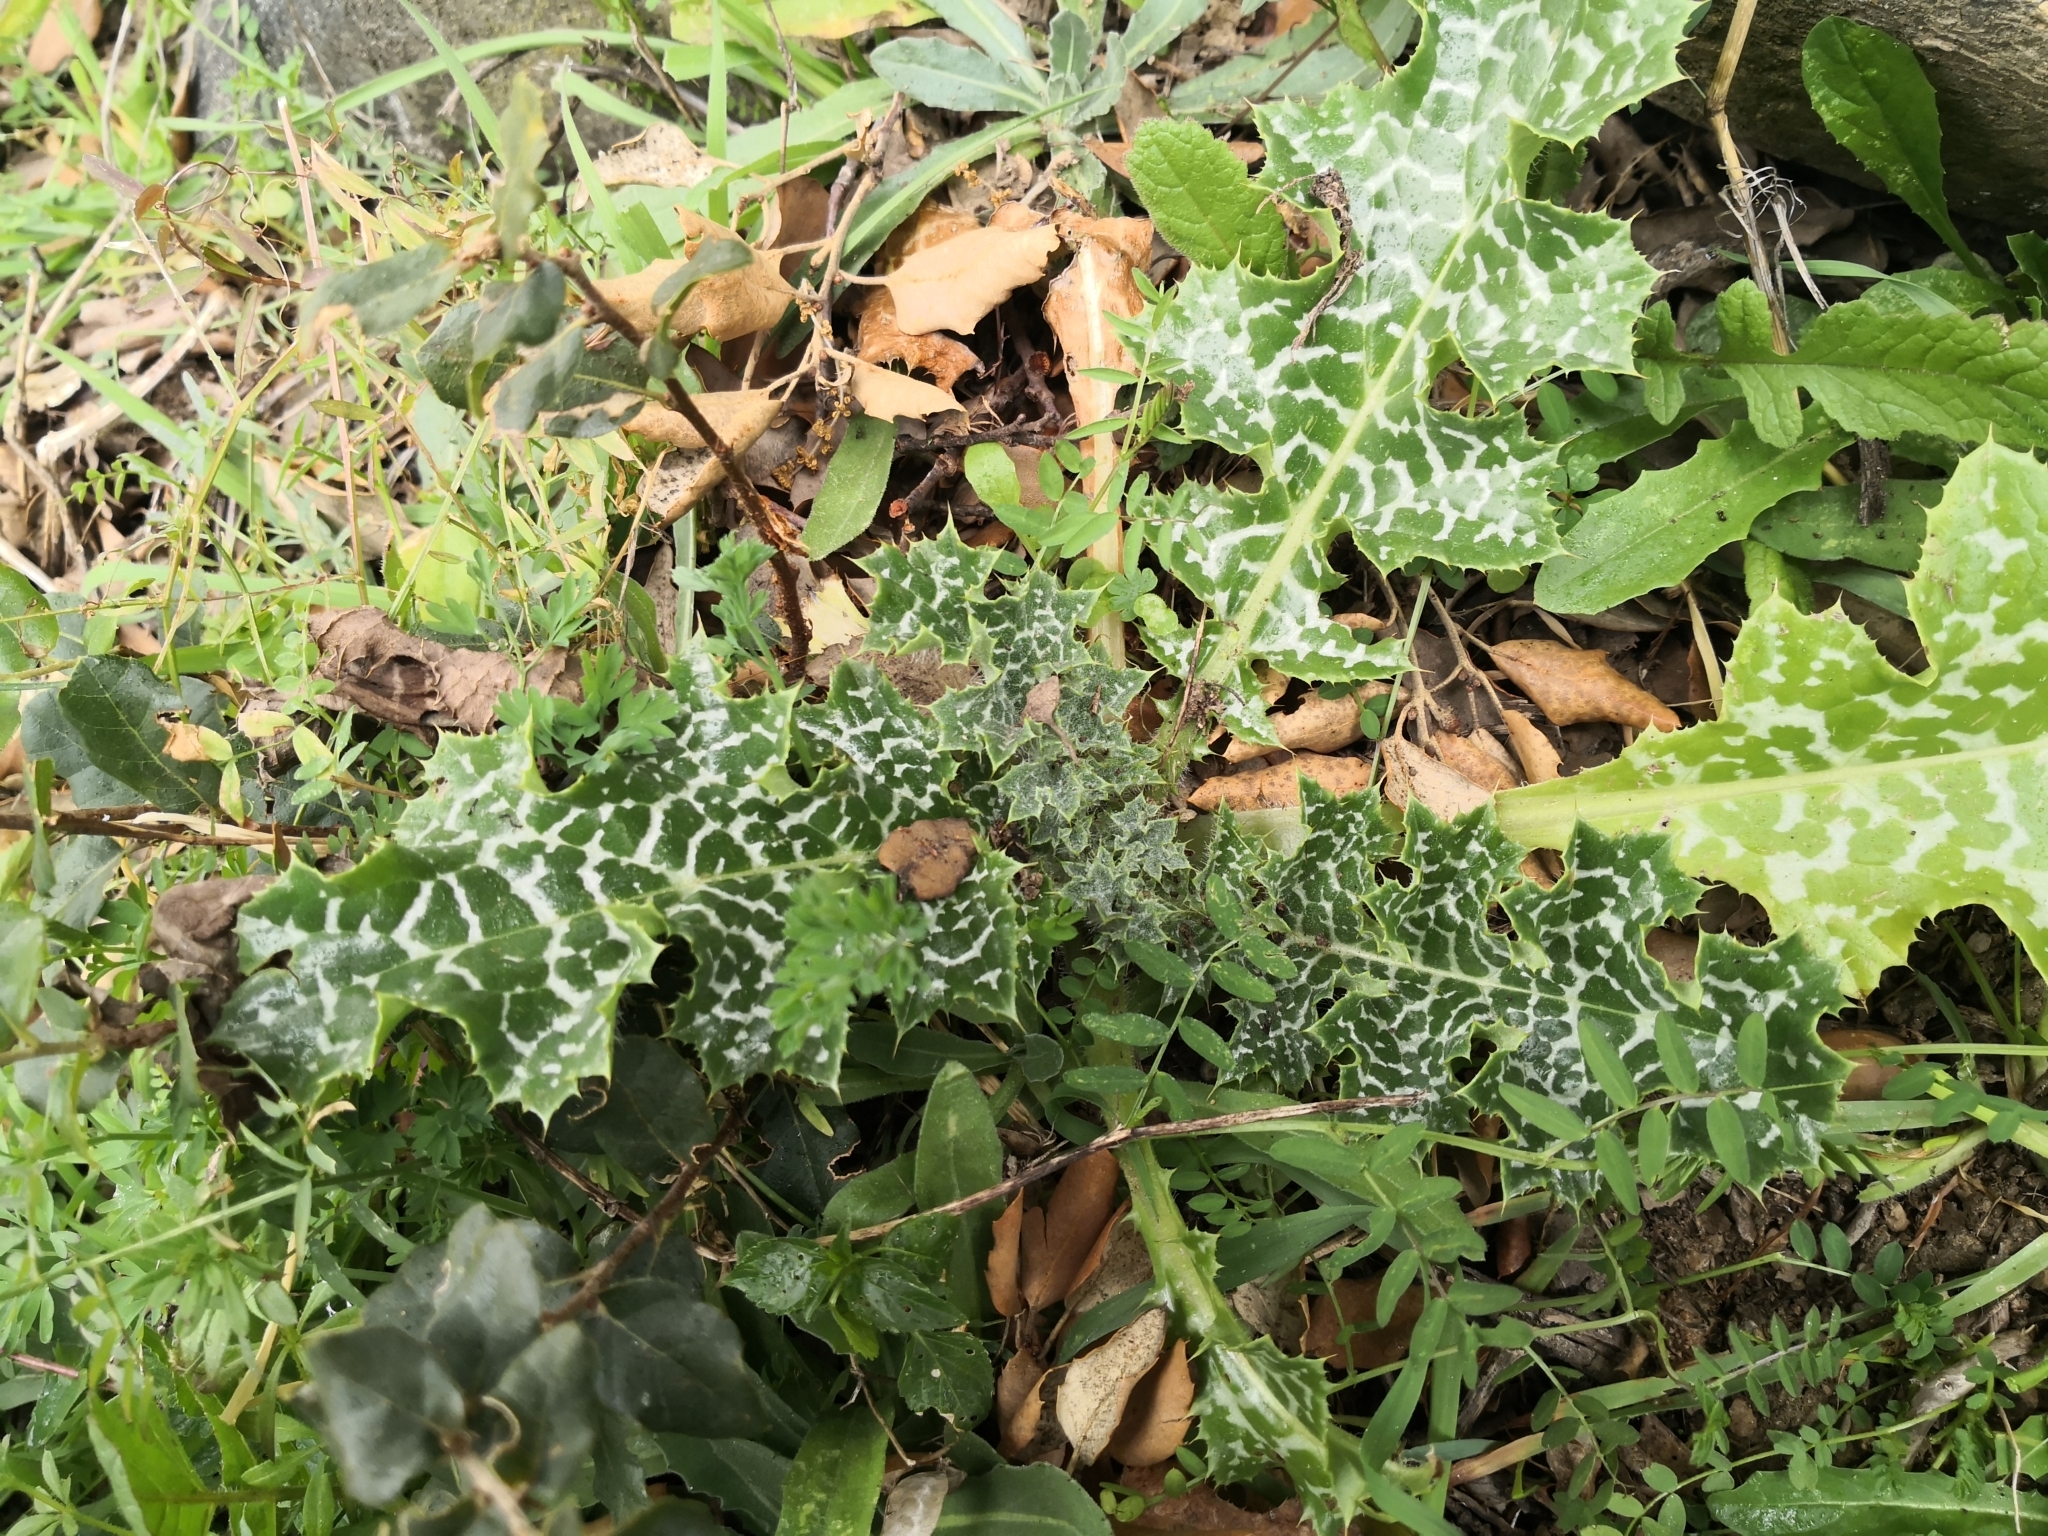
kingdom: Plantae
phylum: Tracheophyta
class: Magnoliopsida
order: Asterales
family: Asteraceae
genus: Silybum
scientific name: Silybum marianum
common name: Milk thistle
